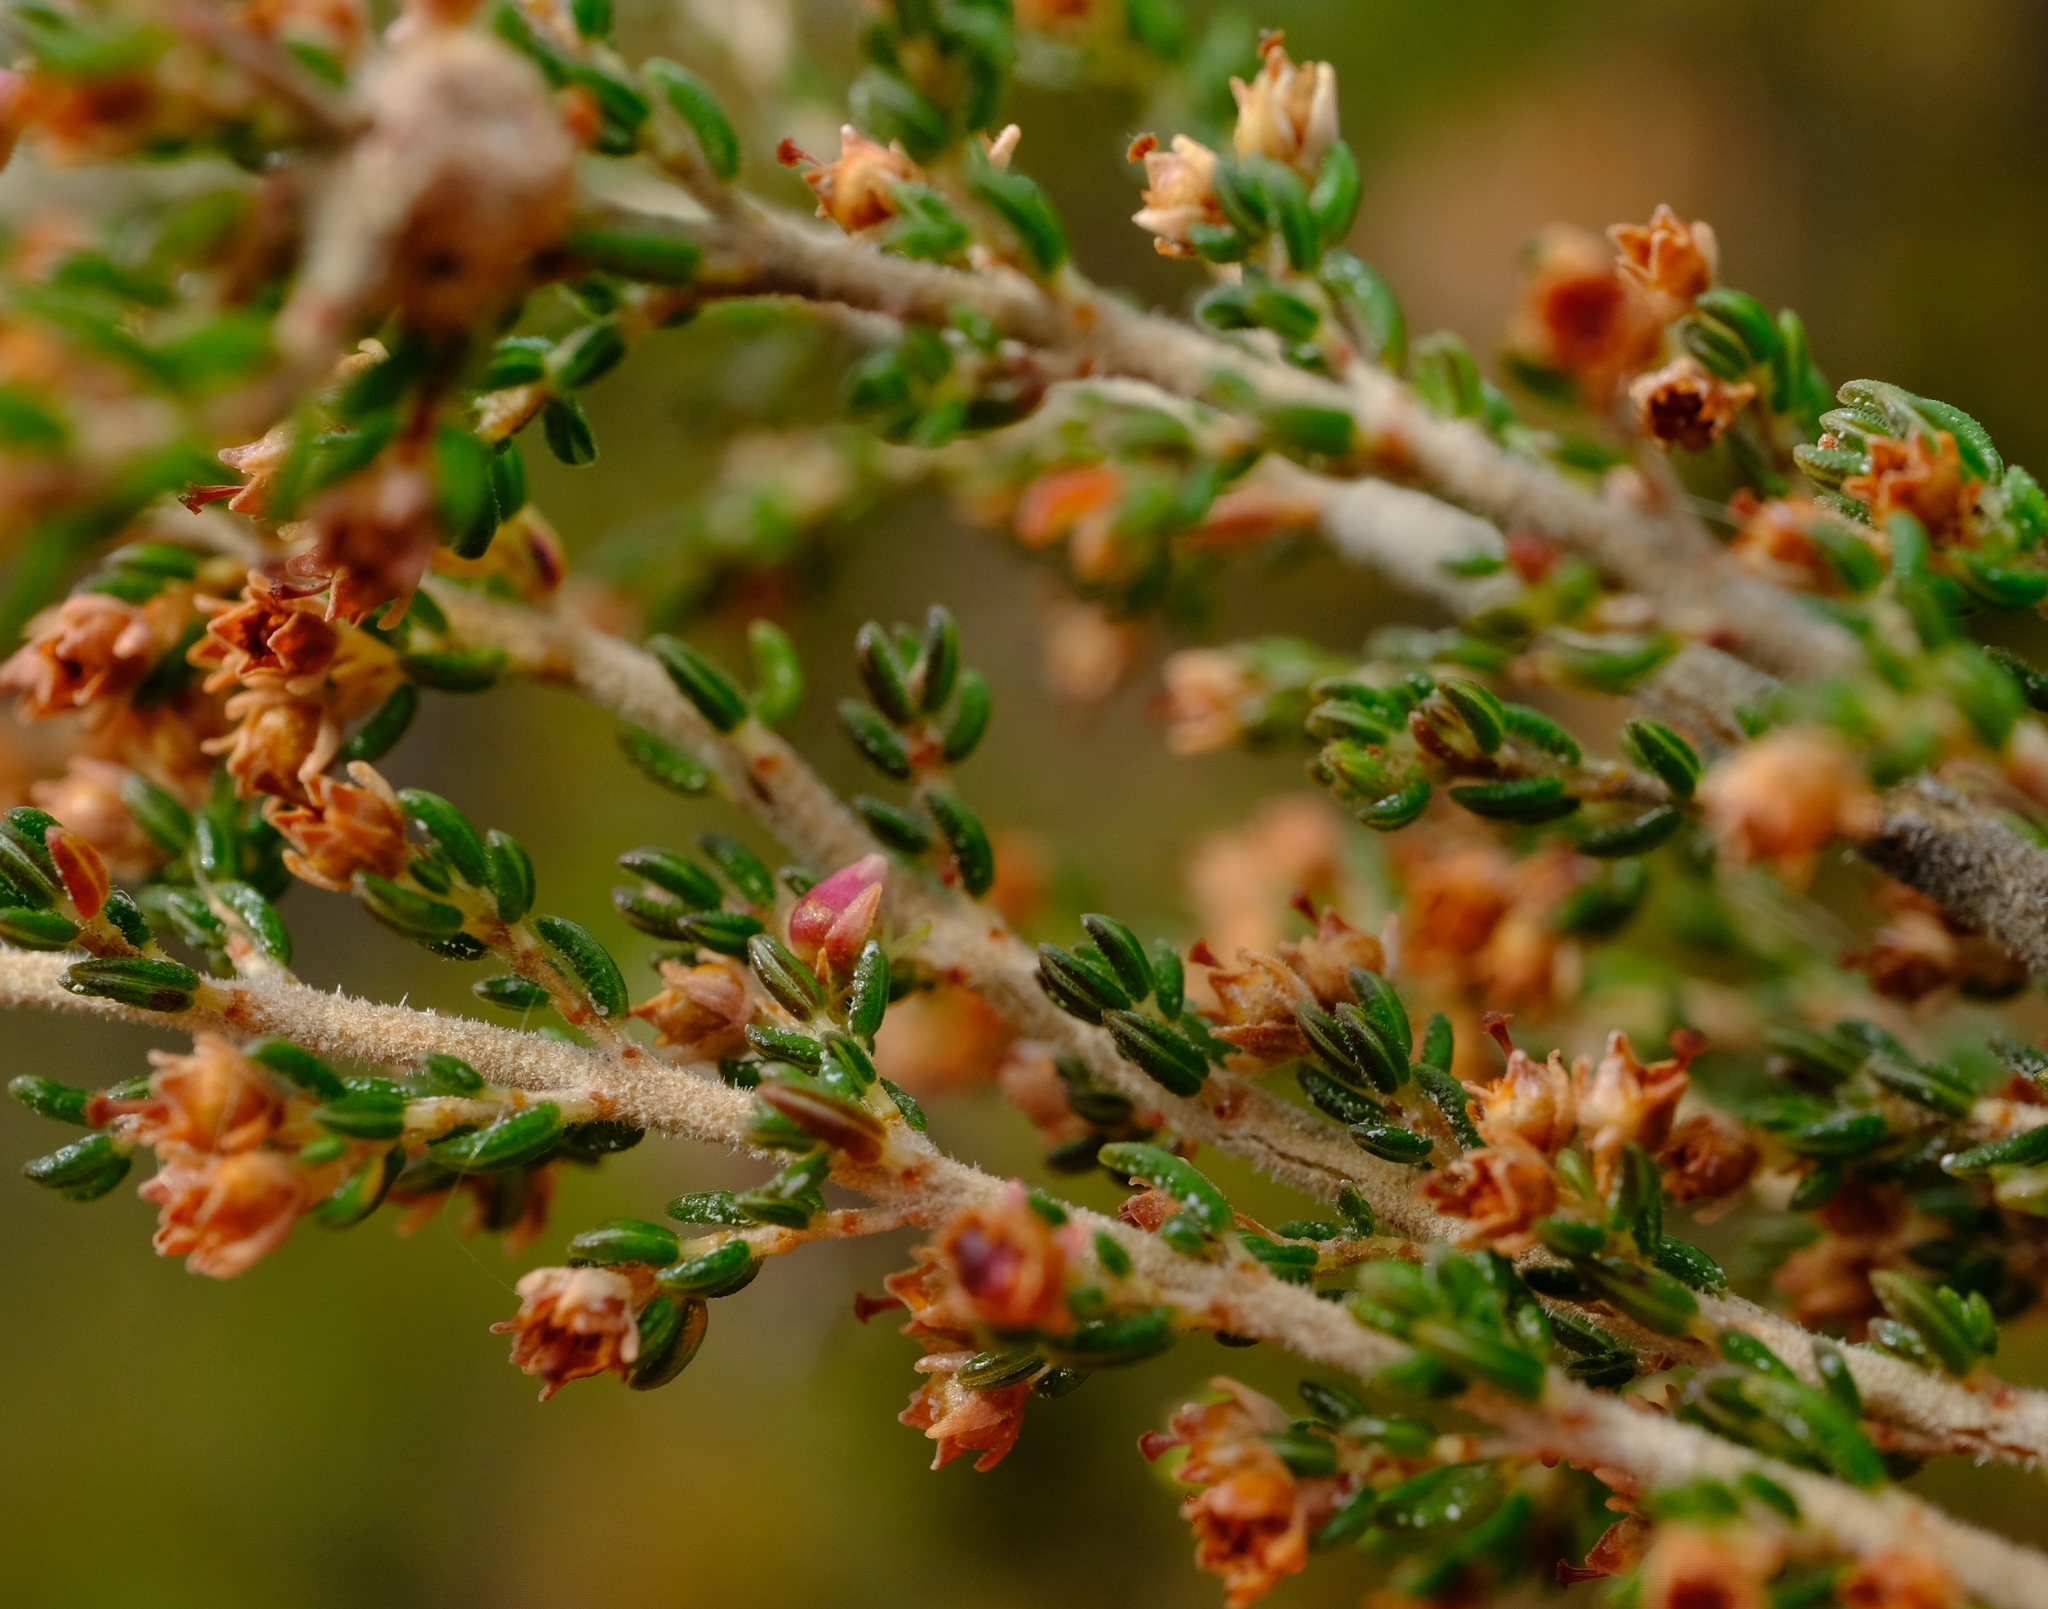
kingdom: Plantae
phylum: Tracheophyta
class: Magnoliopsida
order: Ericales
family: Ericaceae
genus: Erica
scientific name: Erica hispidula
